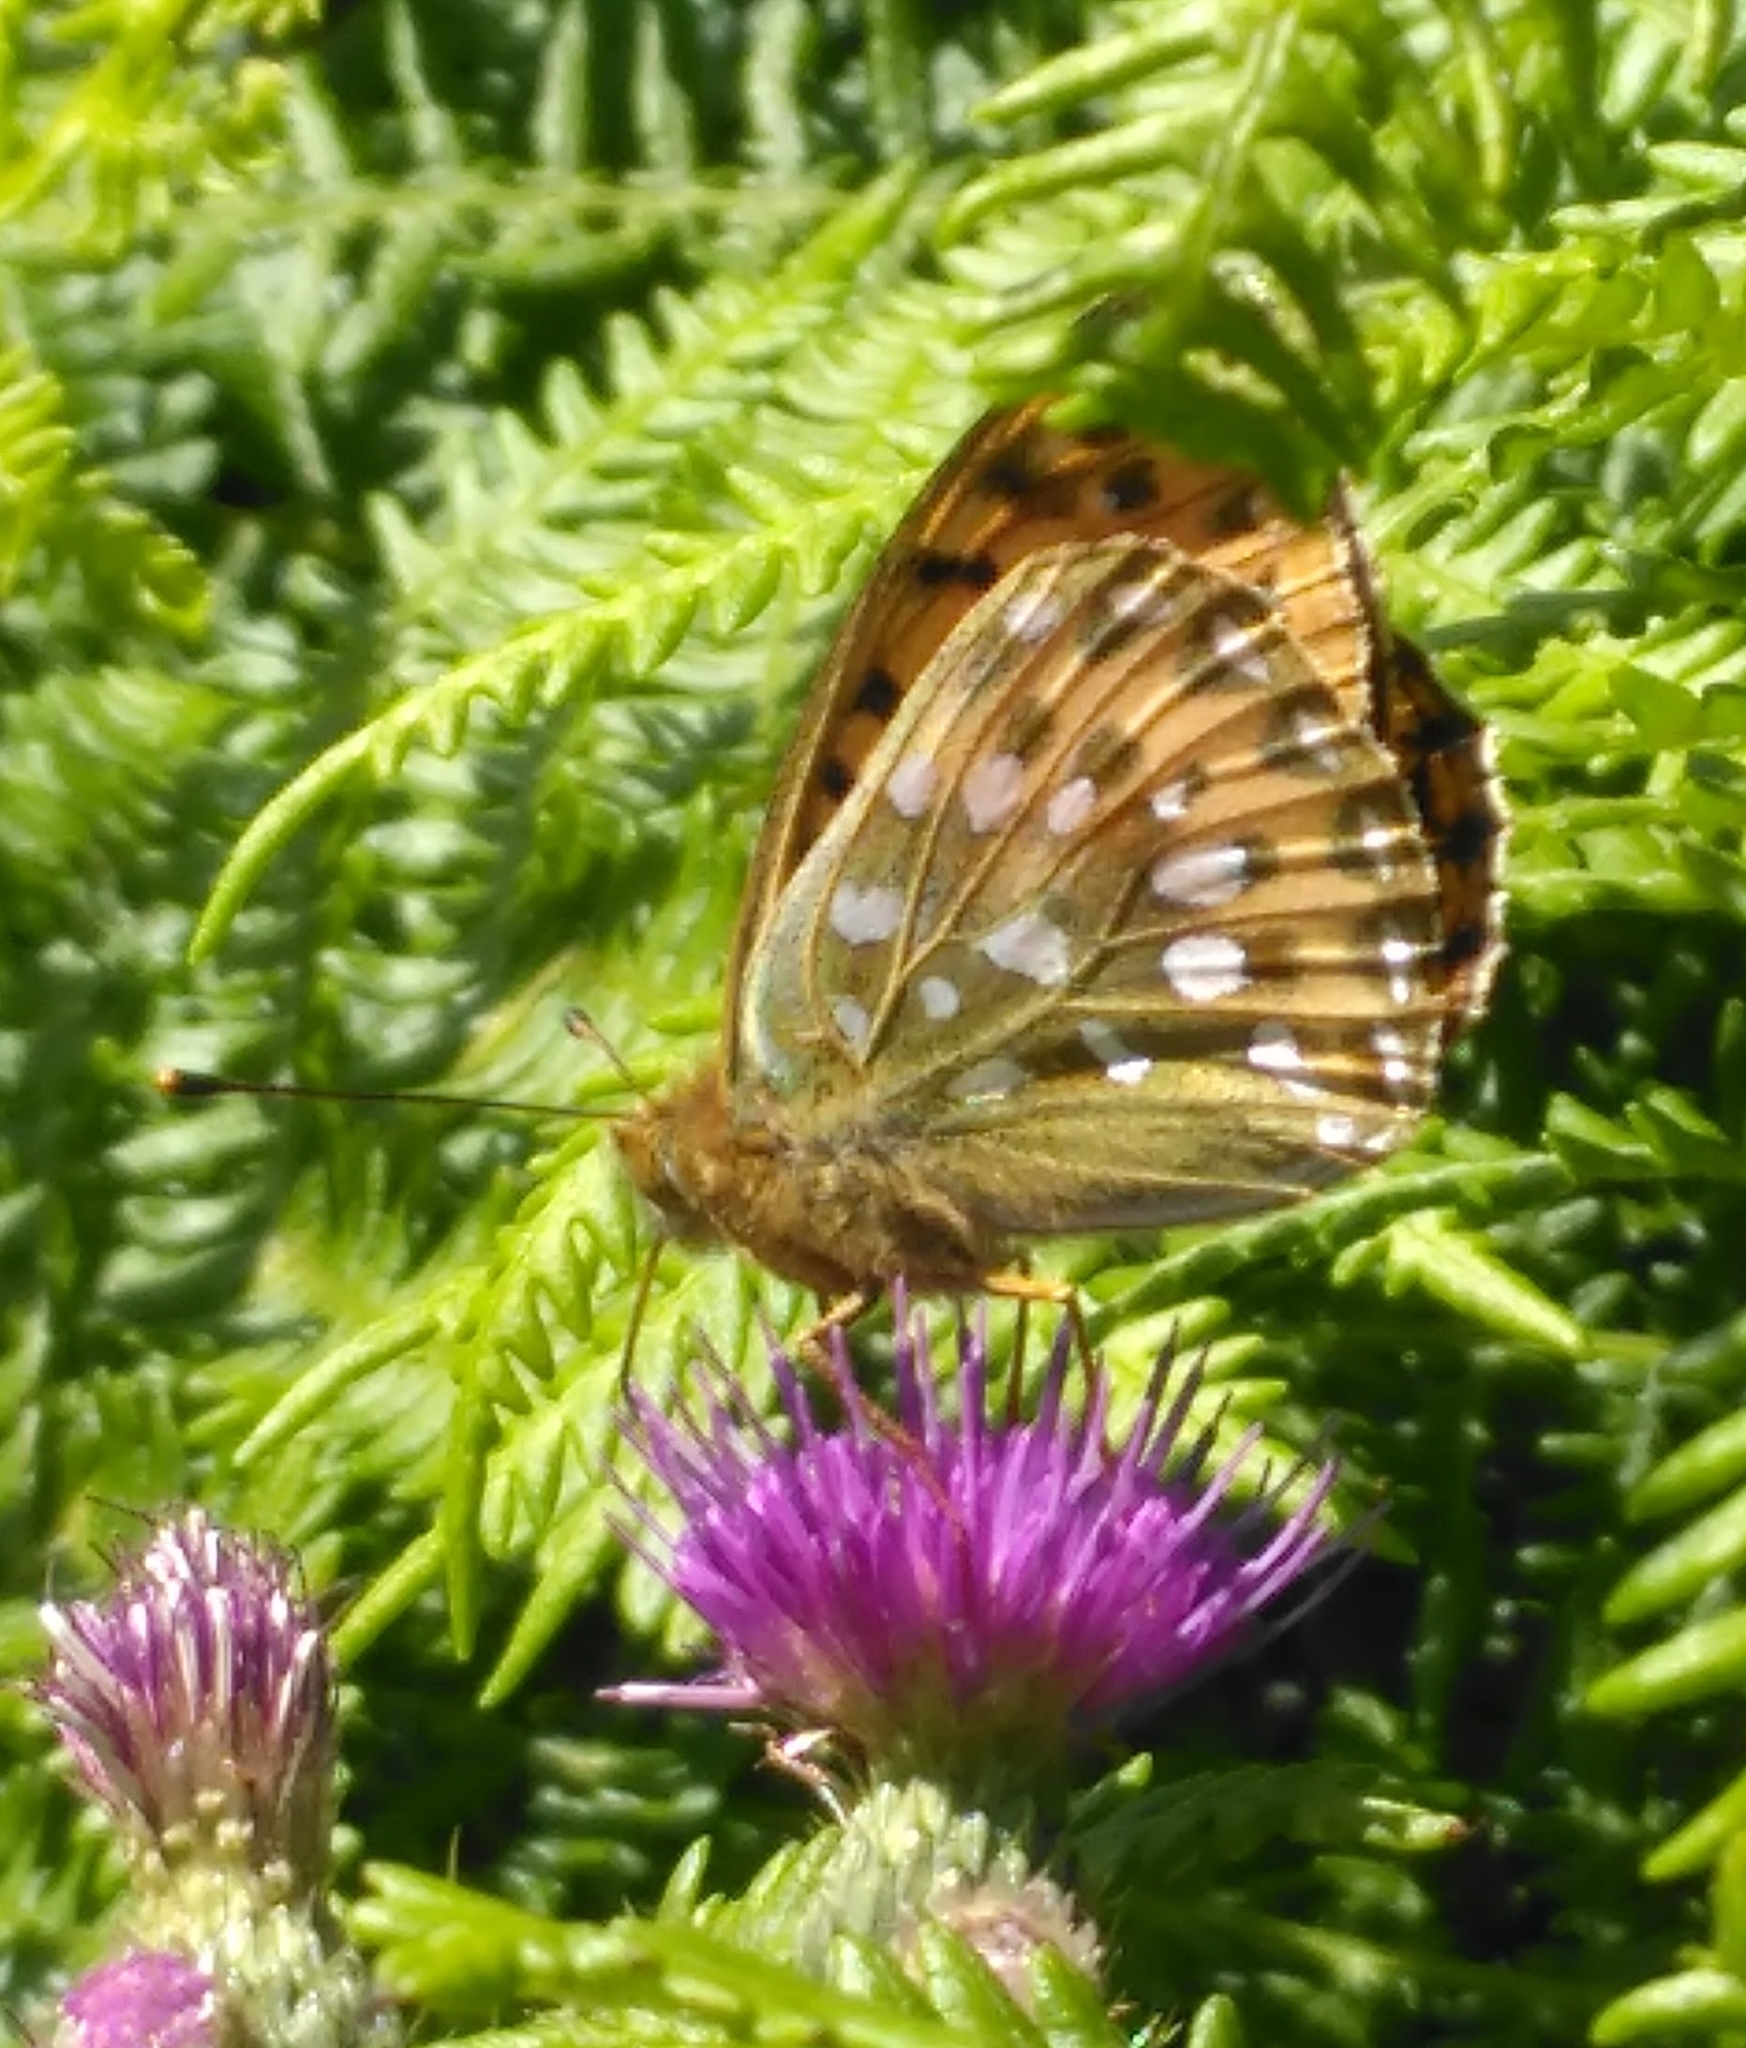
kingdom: Animalia
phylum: Arthropoda
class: Insecta
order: Lepidoptera
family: Nymphalidae
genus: Speyeria
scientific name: Speyeria aglaja
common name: Dark green fritillary
